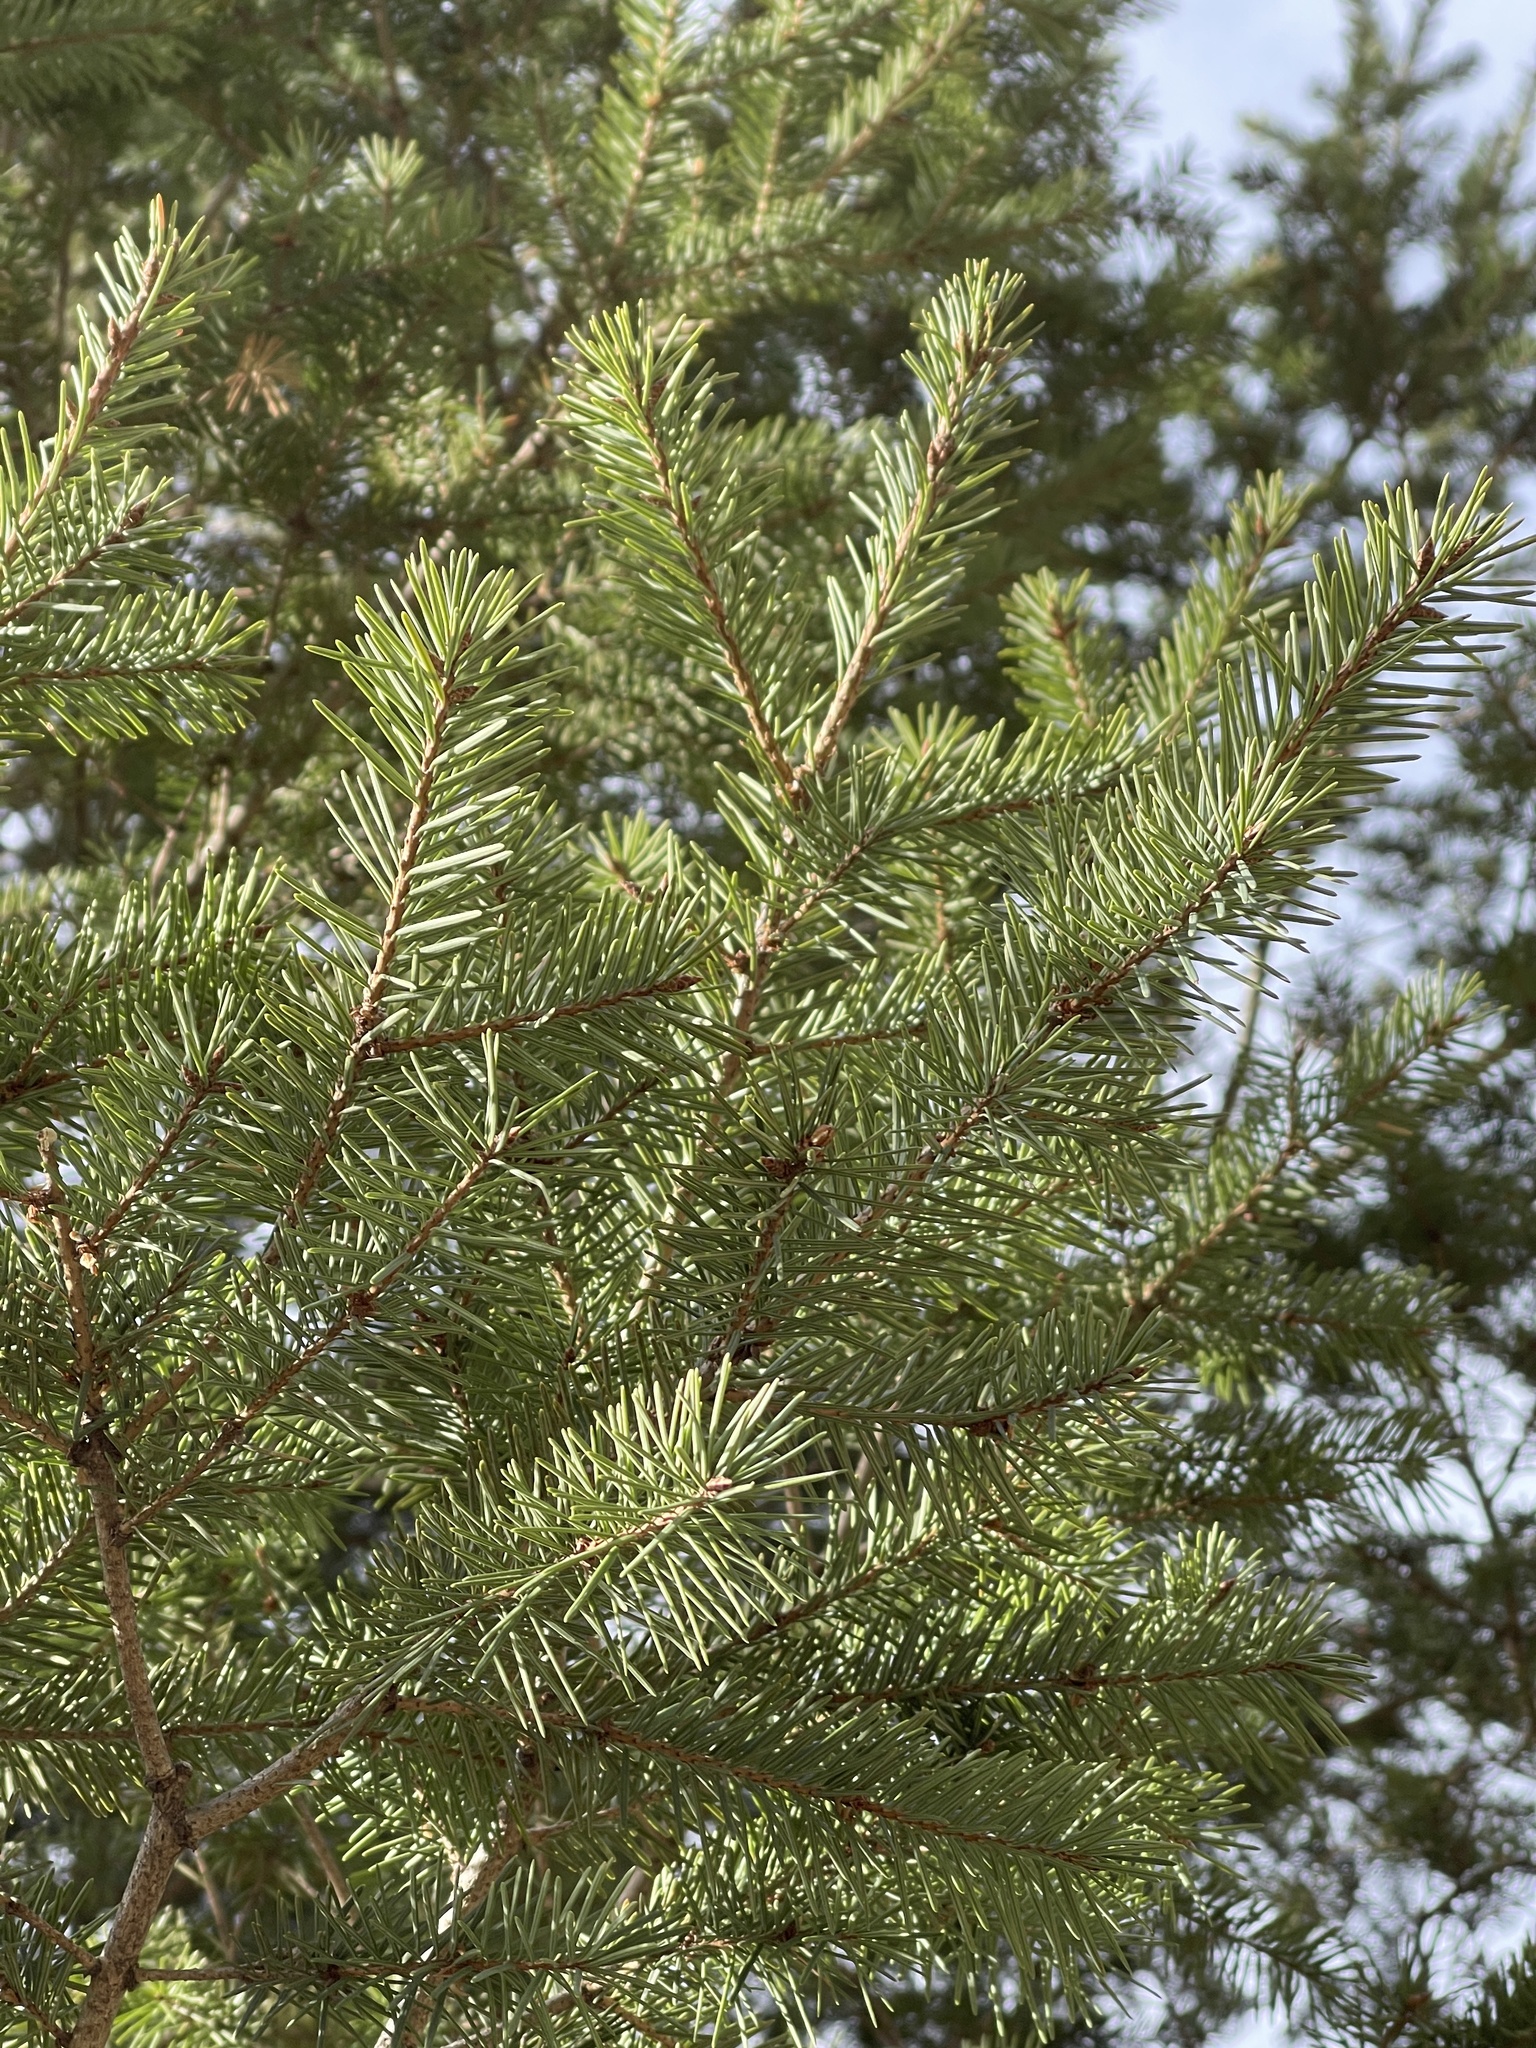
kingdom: Plantae
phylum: Tracheophyta
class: Pinopsida
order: Pinales
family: Pinaceae
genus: Pseudotsuga
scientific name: Pseudotsuga menziesii
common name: Douglas fir
